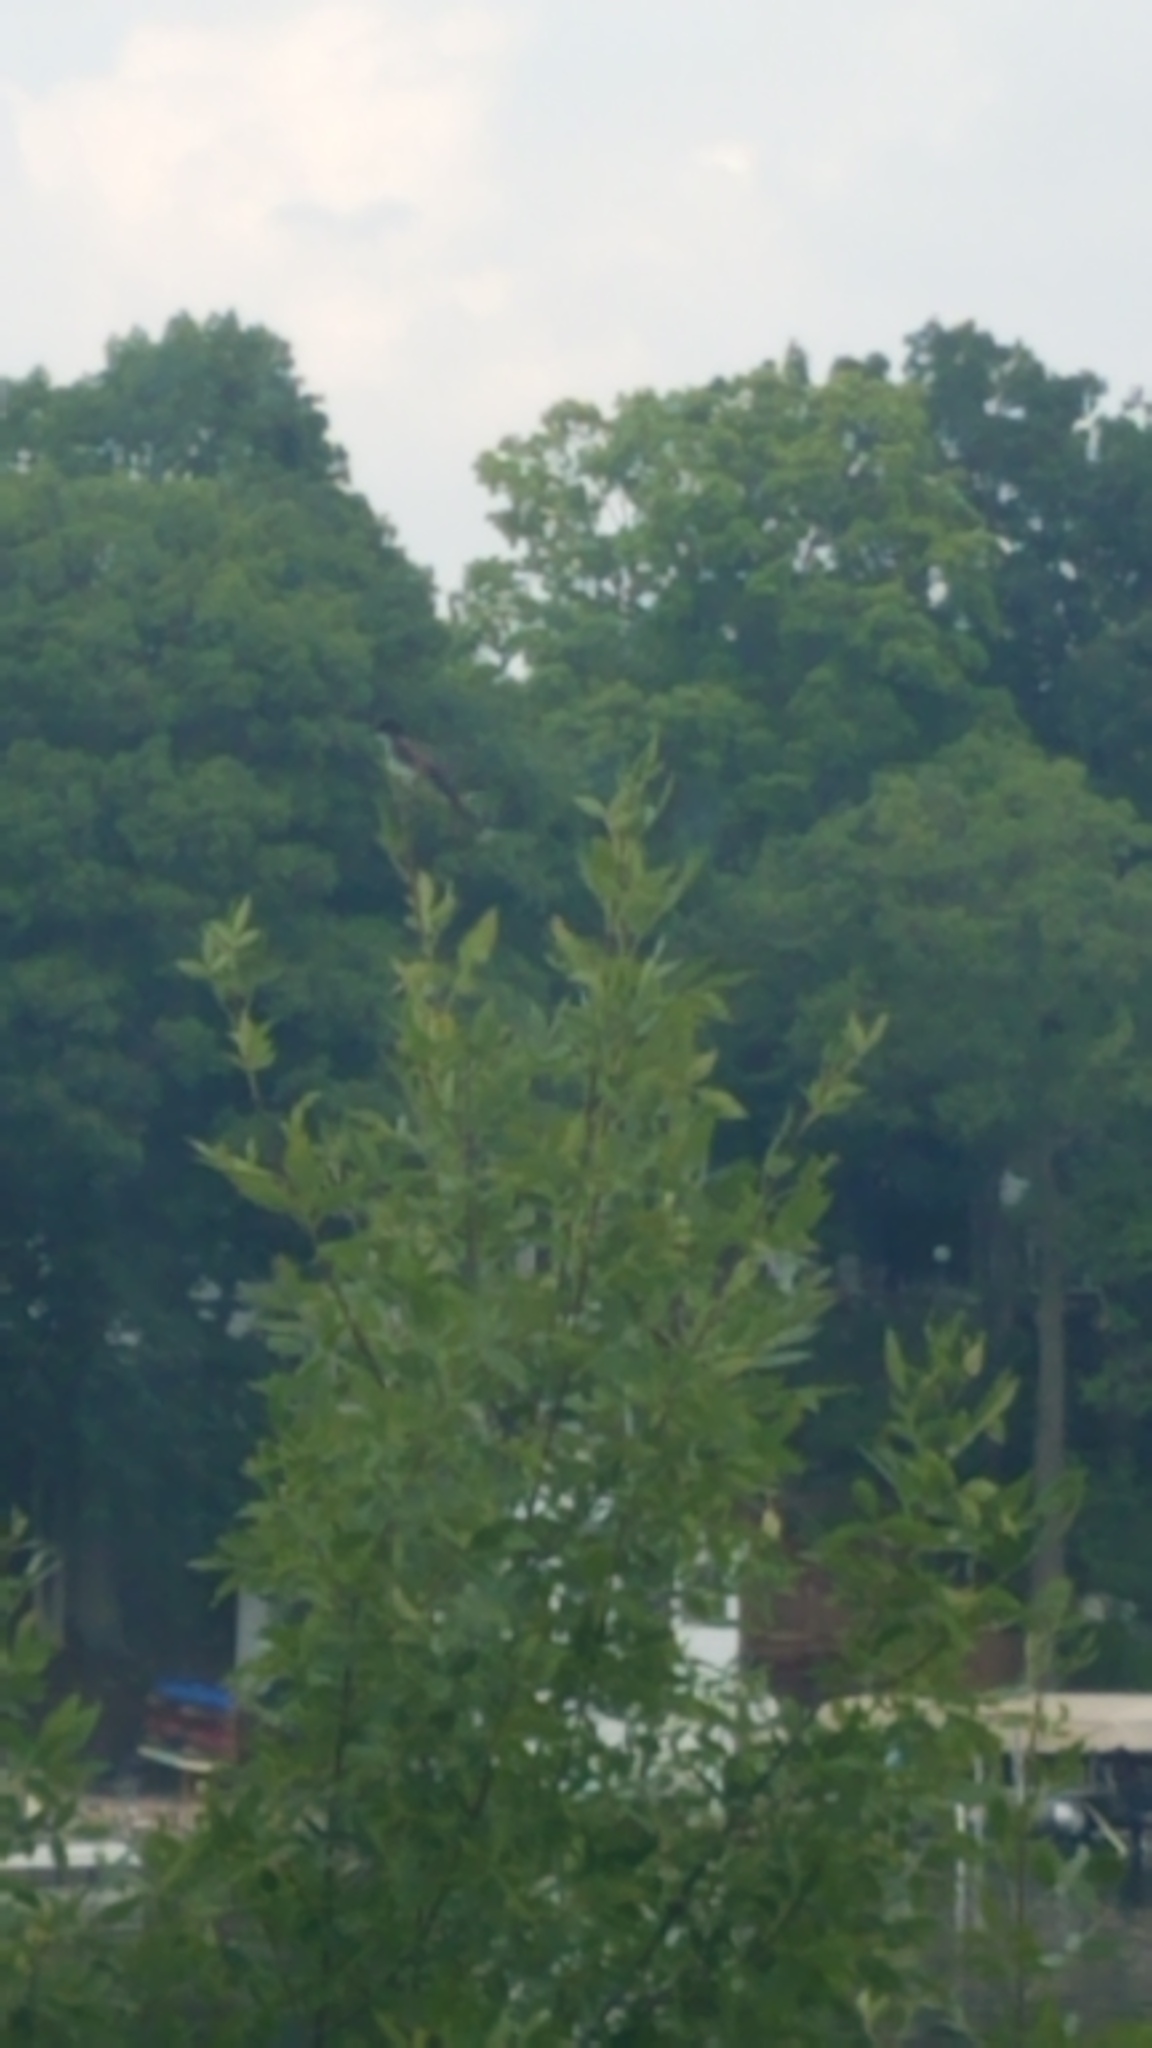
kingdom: Animalia
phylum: Chordata
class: Aves
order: Passeriformes
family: Tyrannidae
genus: Tyrannus
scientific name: Tyrannus tyrannus
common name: Eastern kingbird
